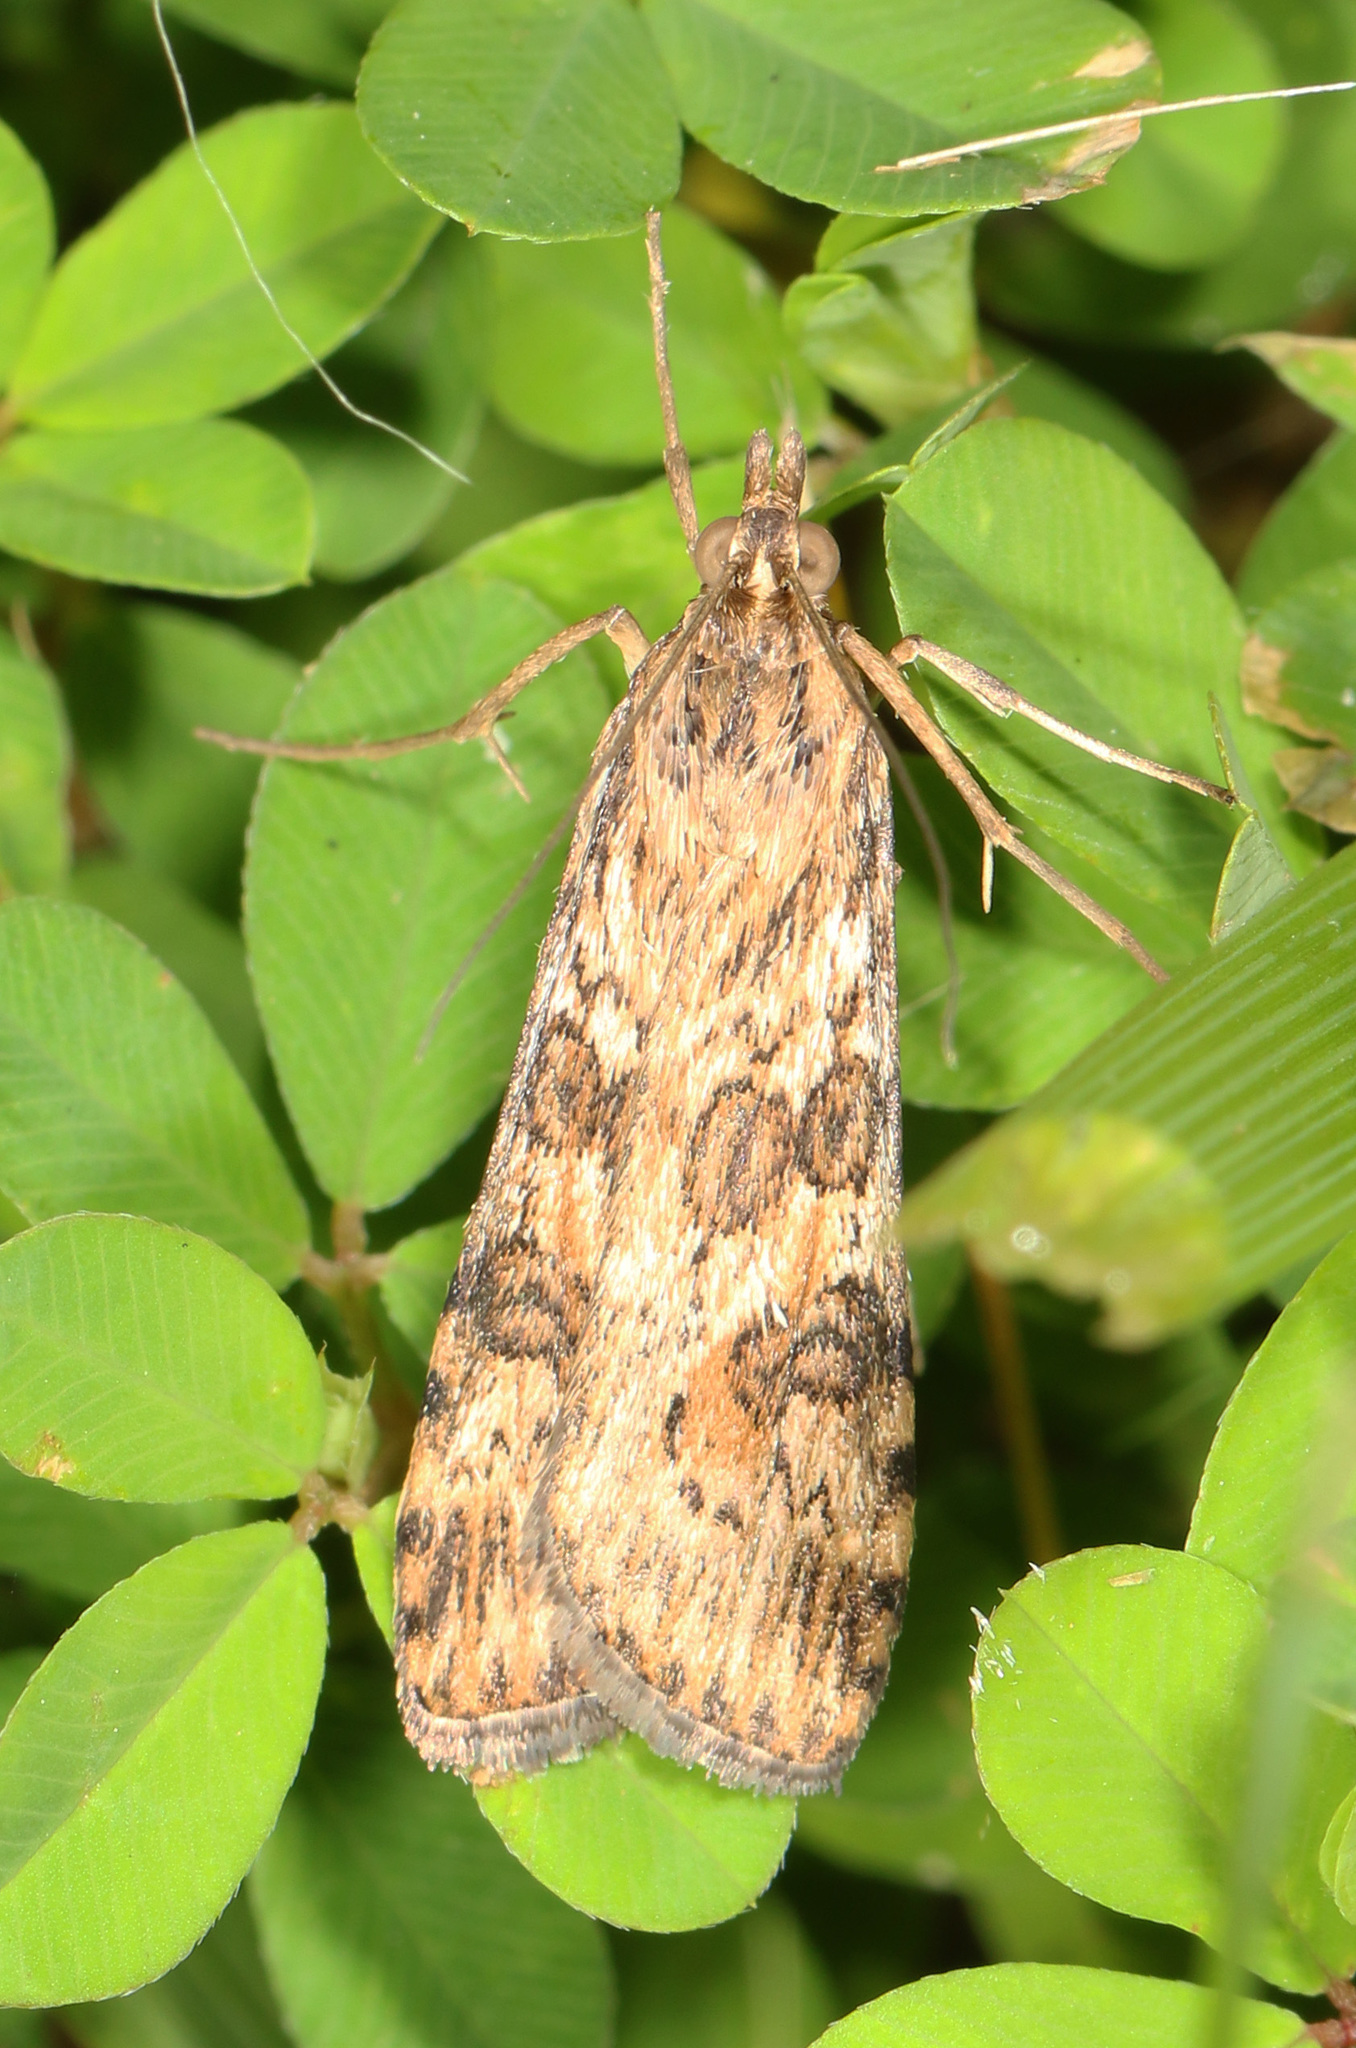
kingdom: Animalia
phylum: Arthropoda
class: Insecta
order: Lepidoptera
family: Crambidae
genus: Nomophila
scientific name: Nomophila nearctica
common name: American rush veneer
